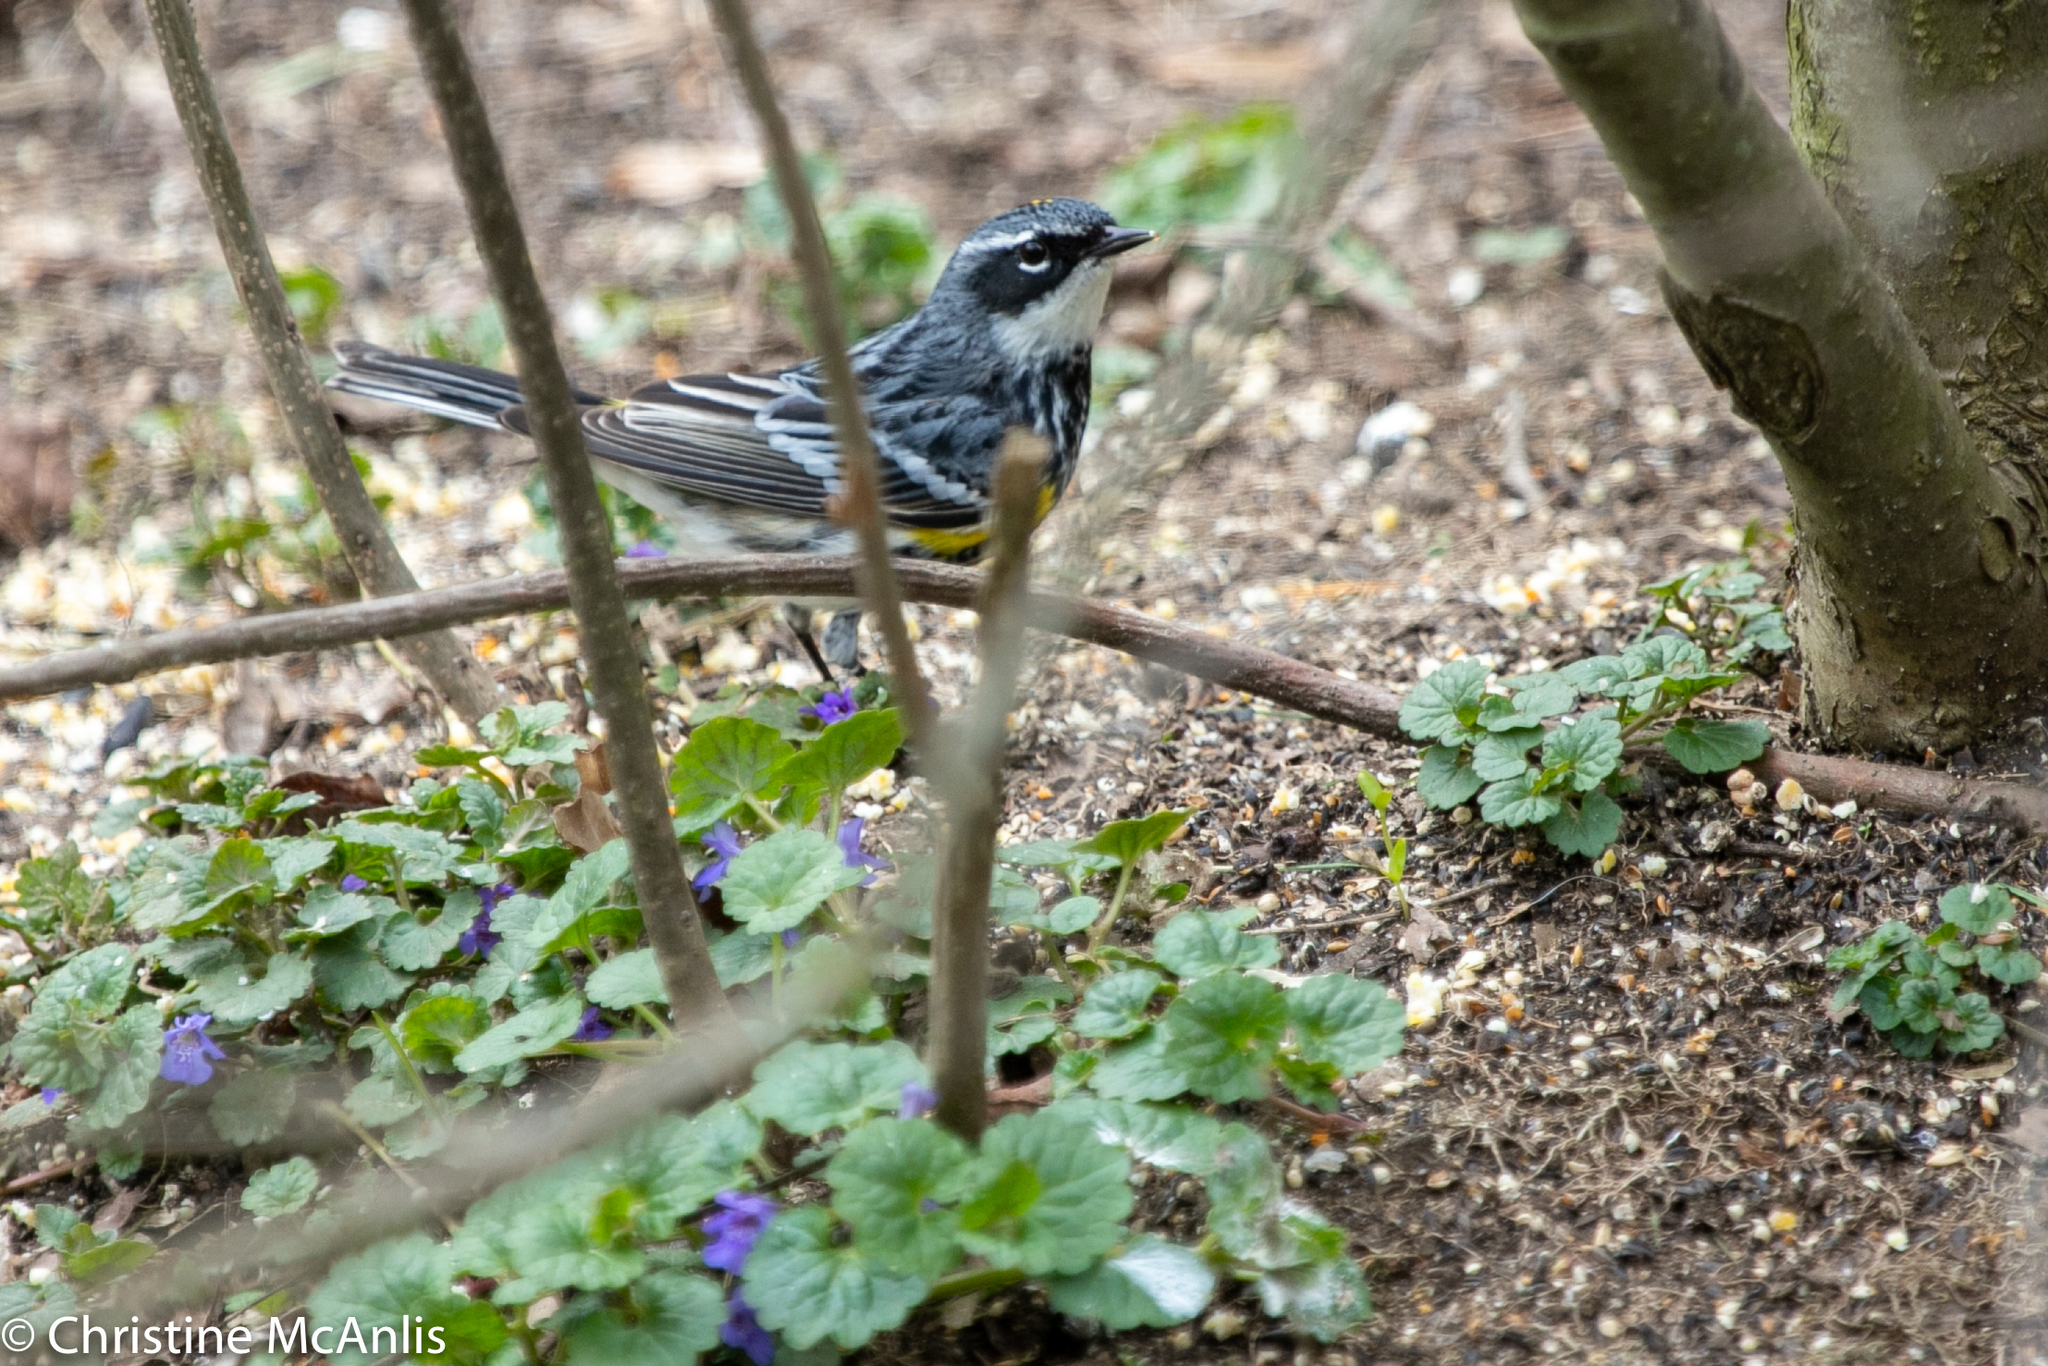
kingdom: Animalia
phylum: Chordata
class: Aves
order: Passeriformes
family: Parulidae
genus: Setophaga
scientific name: Setophaga coronata
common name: Myrtle warbler
